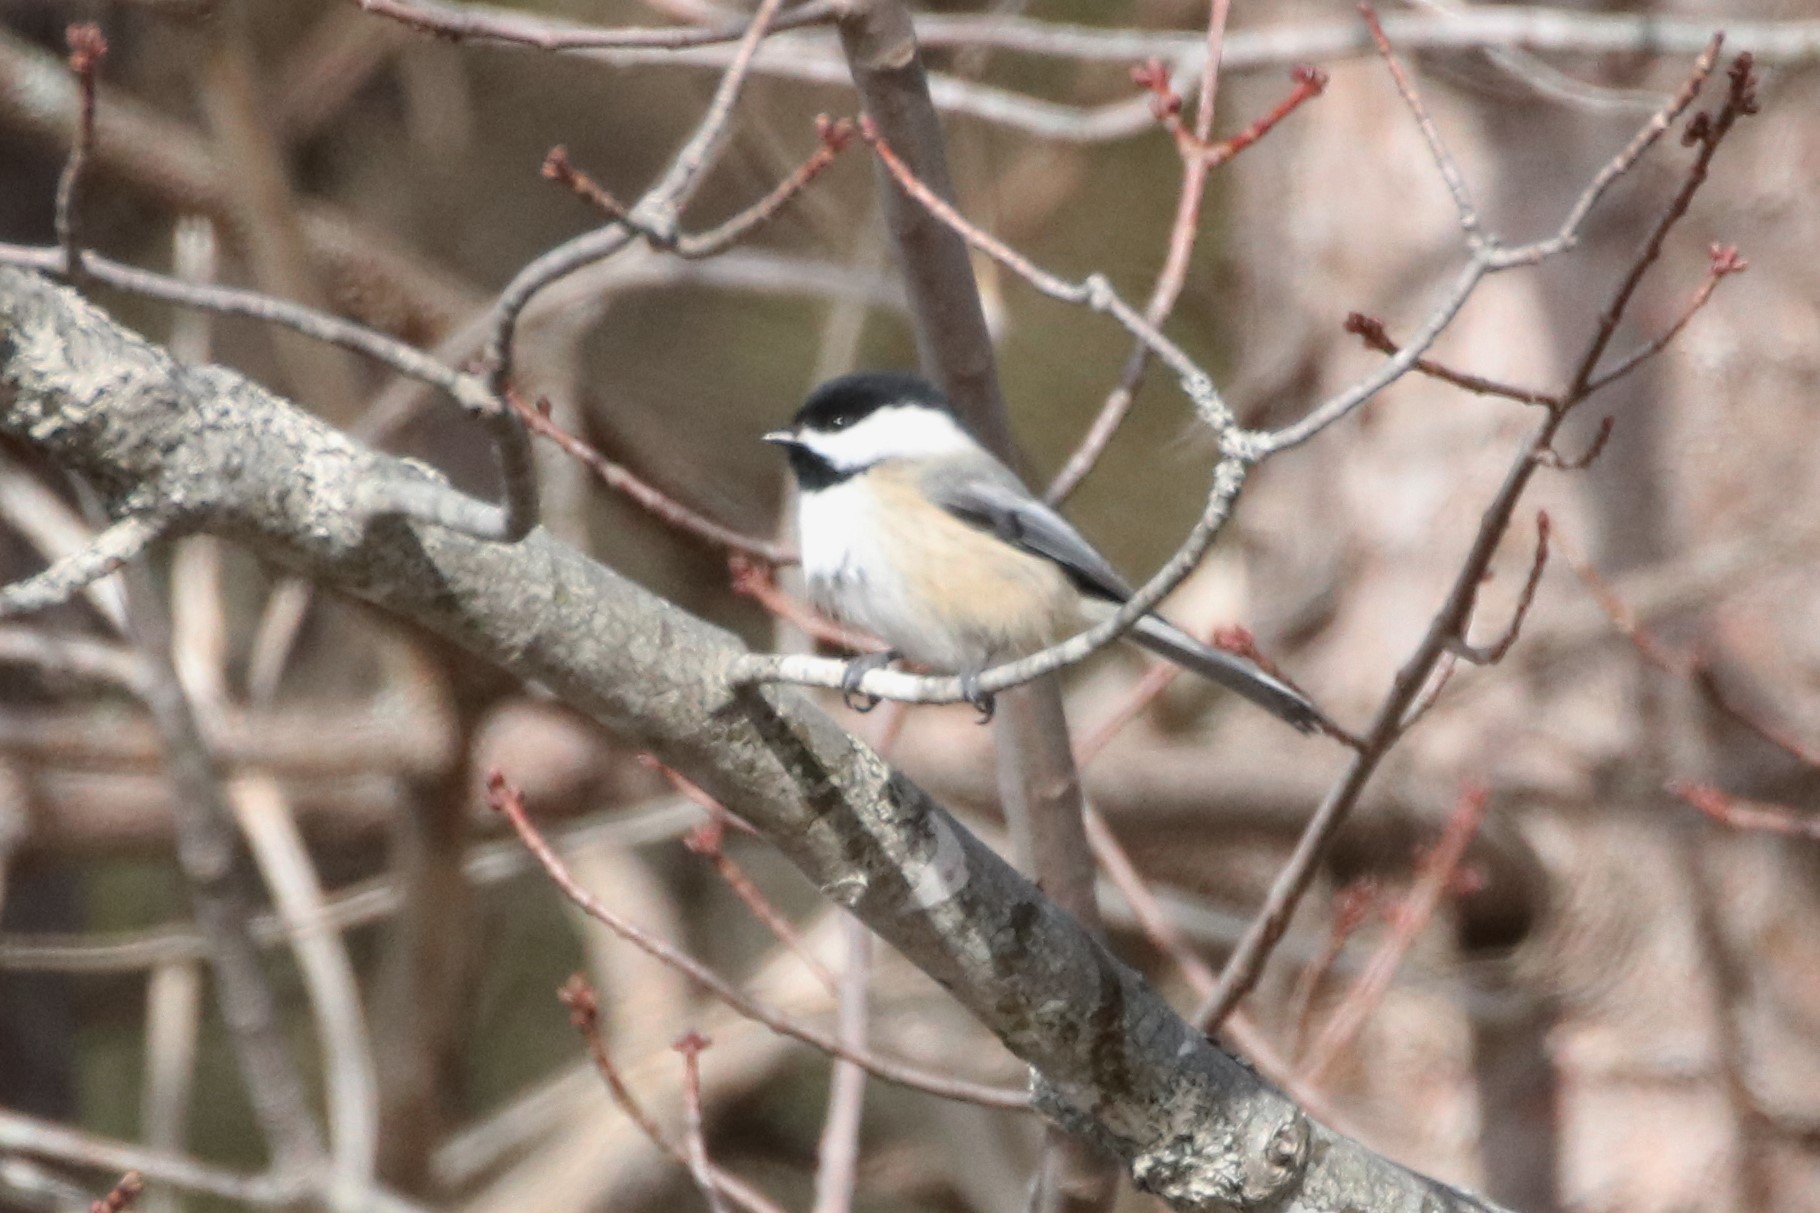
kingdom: Animalia
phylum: Chordata
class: Aves
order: Passeriformes
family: Paridae
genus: Poecile
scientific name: Poecile atricapillus
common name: Black-capped chickadee
